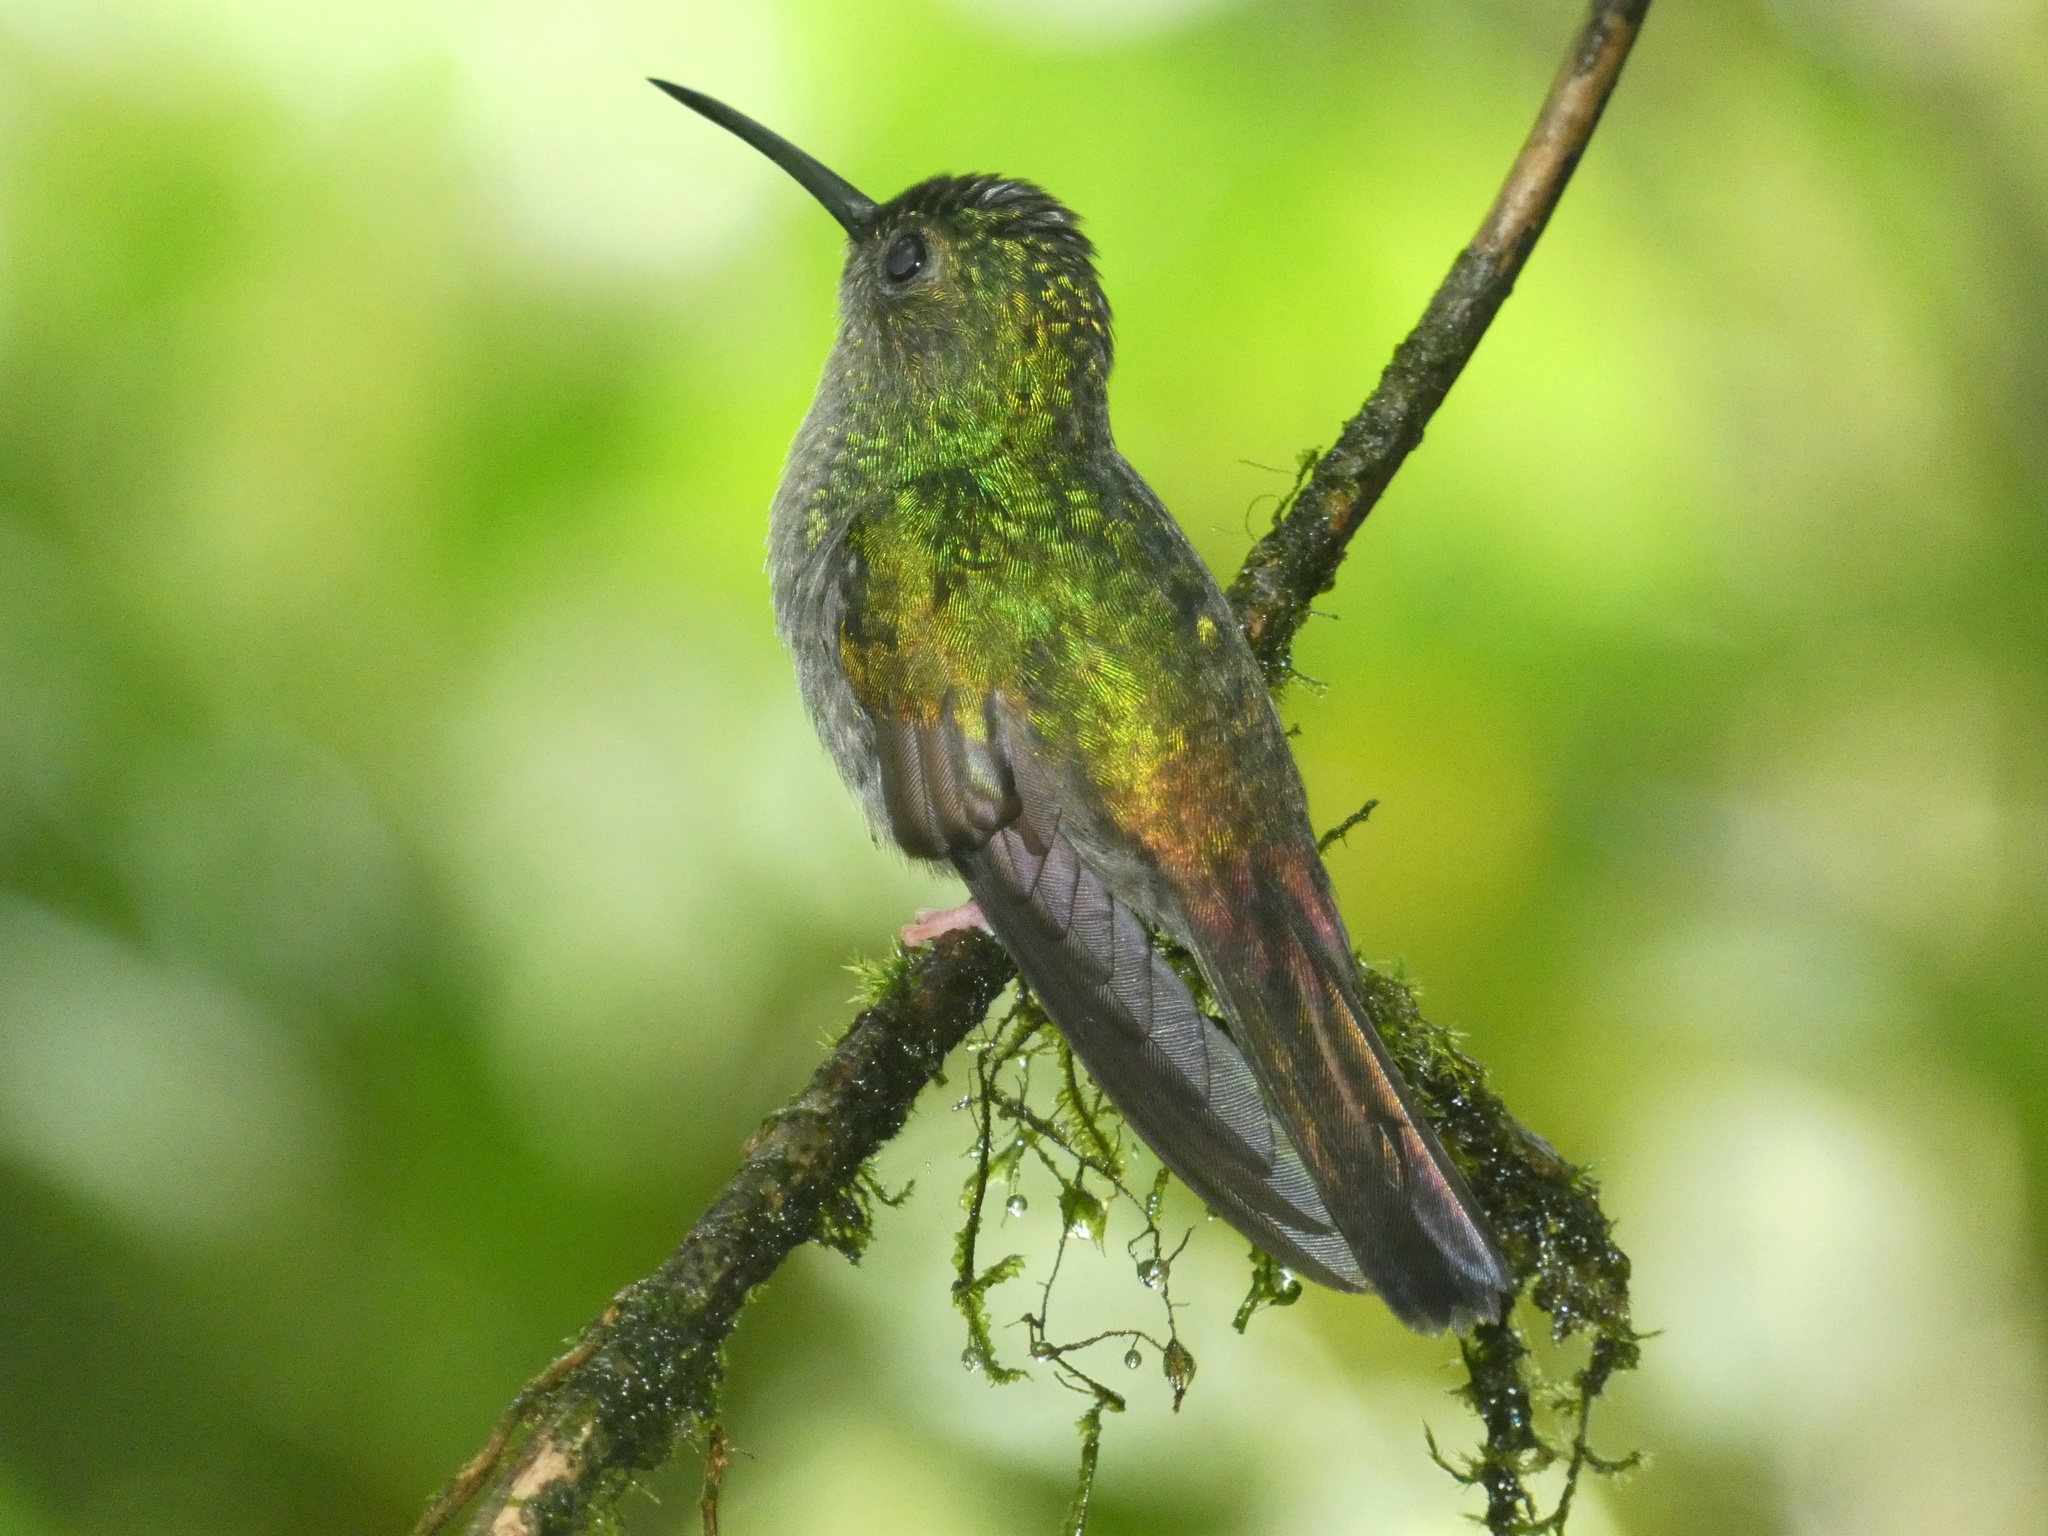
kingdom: Animalia
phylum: Chordata
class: Aves
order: Apodiformes
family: Trochilidae
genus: Chalybura
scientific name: Chalybura urochrysia
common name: Bronze-tailed plumeleteer
